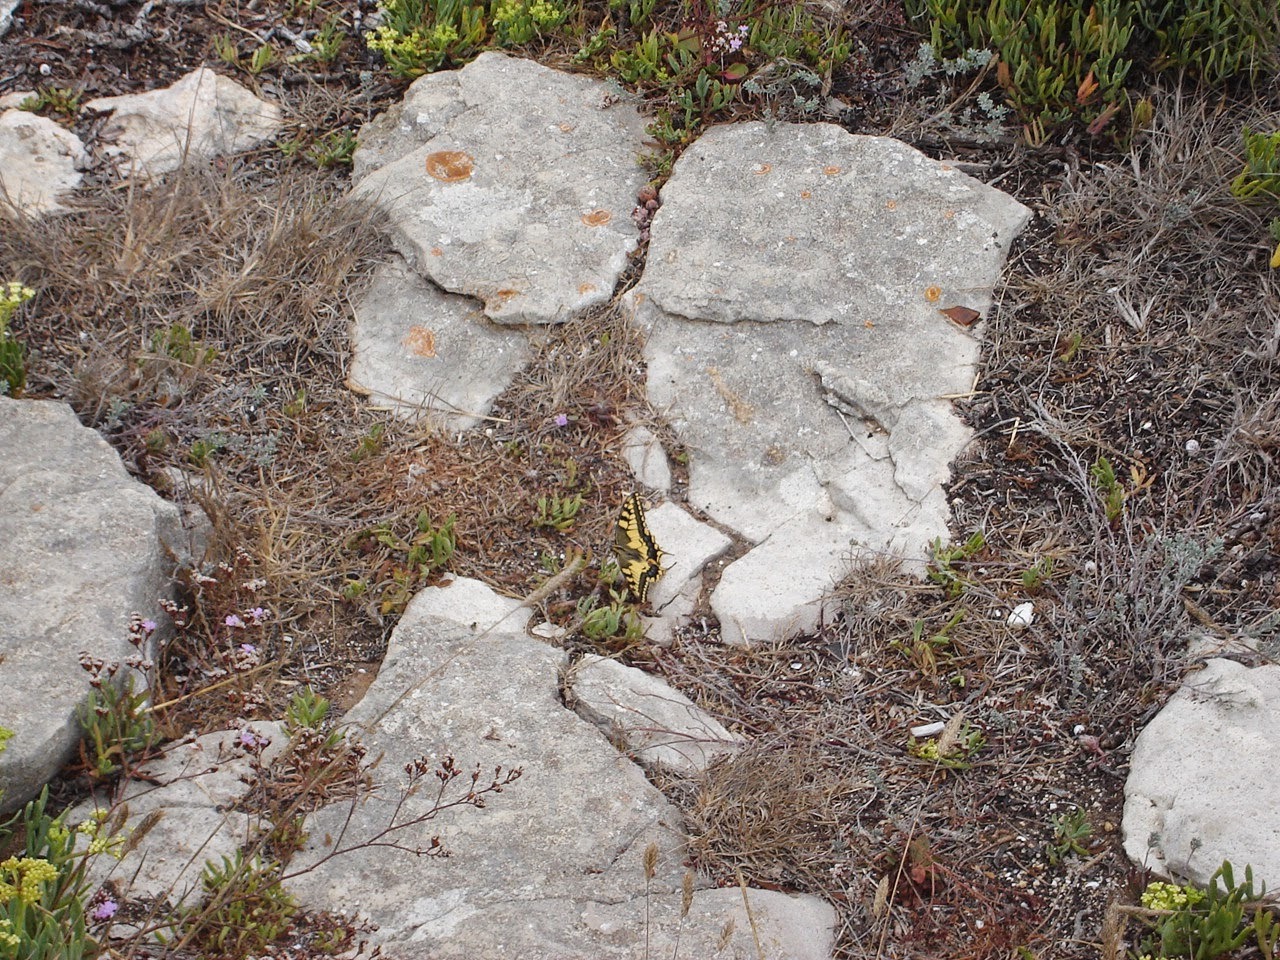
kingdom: Animalia
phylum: Arthropoda
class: Insecta
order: Lepidoptera
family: Papilionidae
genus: Papilio
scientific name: Papilio machaon
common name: Swallowtail
